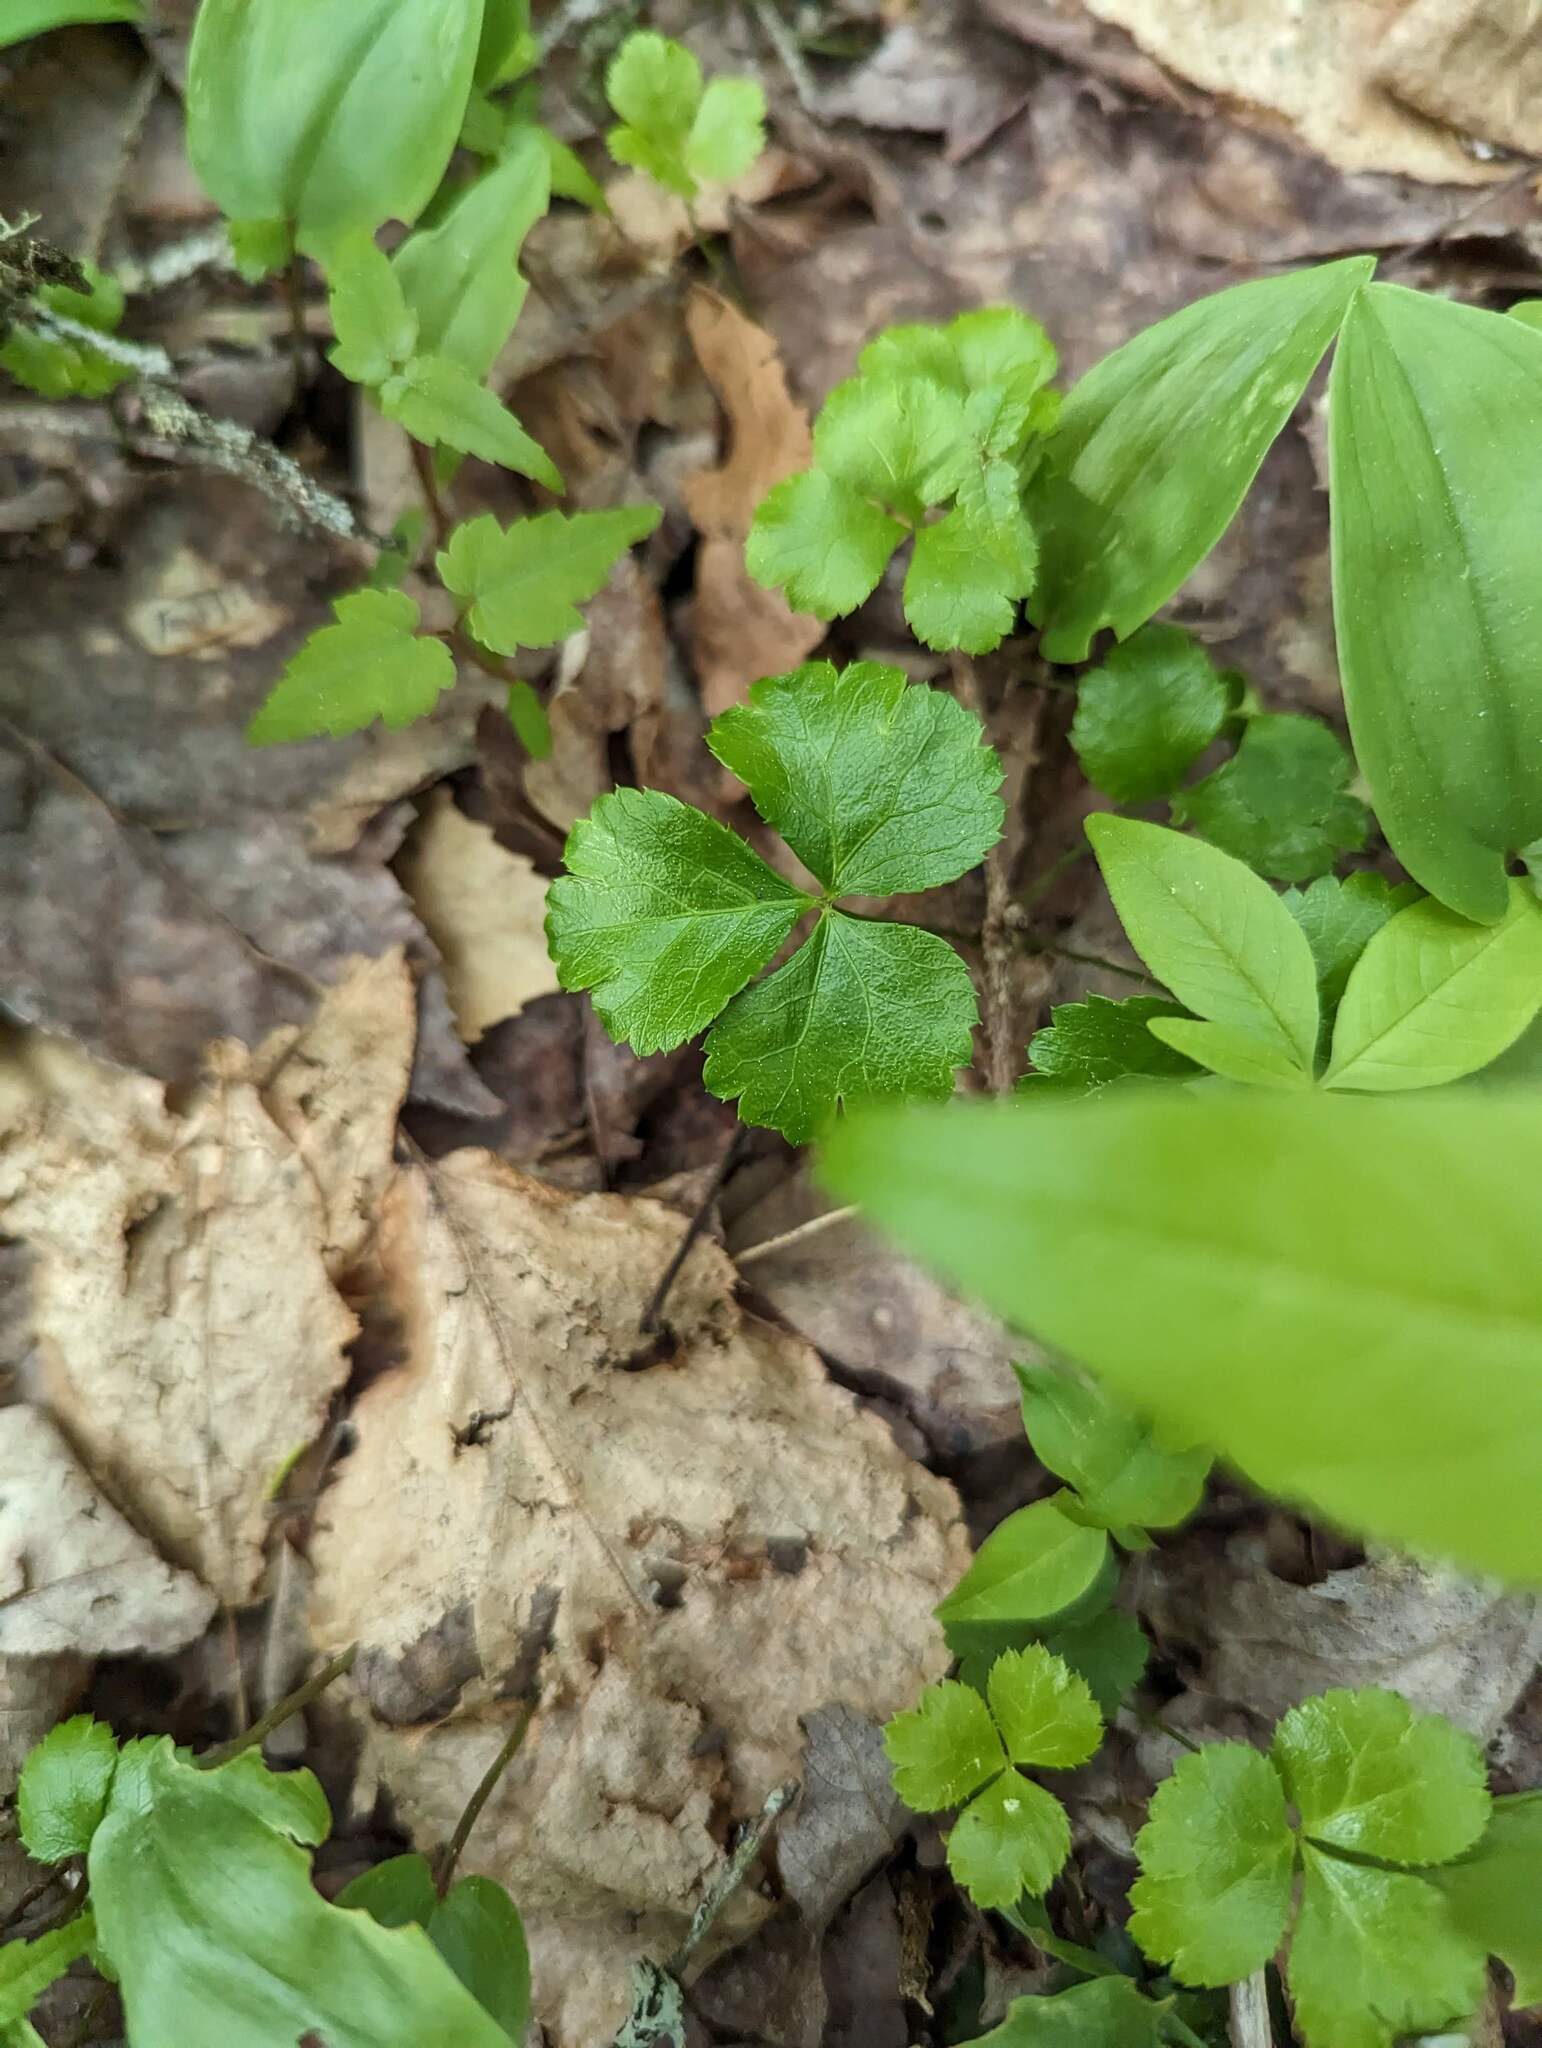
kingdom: Plantae
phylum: Tracheophyta
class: Magnoliopsida
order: Ranunculales
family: Ranunculaceae
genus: Coptis
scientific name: Coptis trifolia
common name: Canker-root
